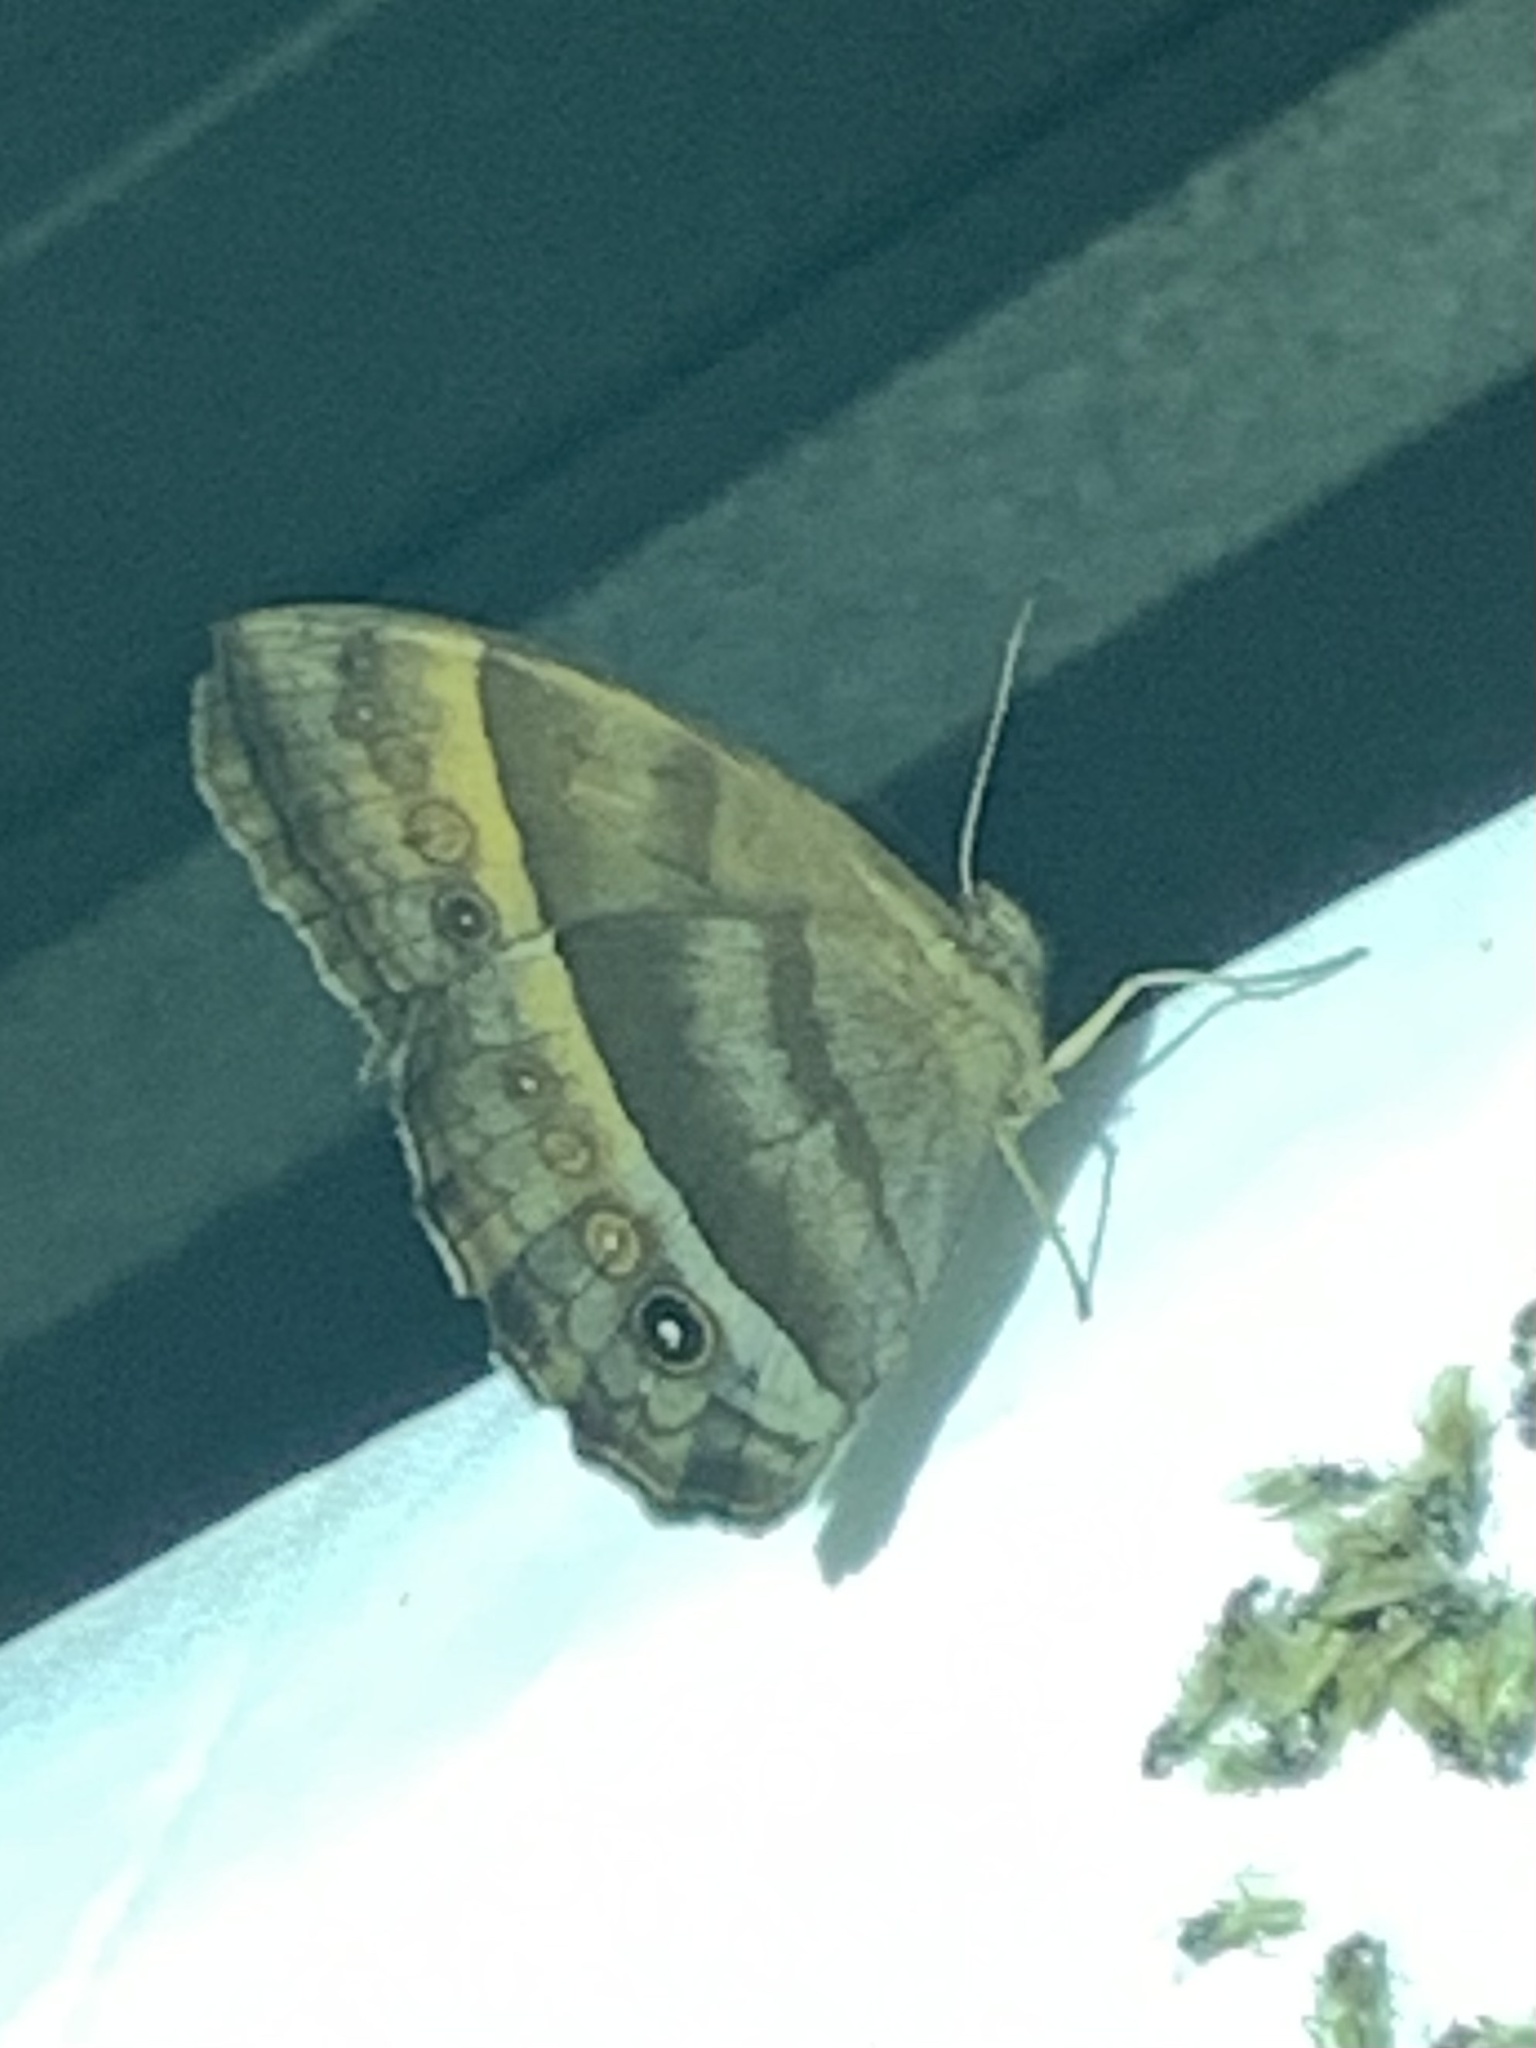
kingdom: Animalia
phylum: Arthropoda
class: Insecta
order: Lepidoptera
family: Nymphalidae
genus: Taygetis
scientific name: Taygetis andromeda
